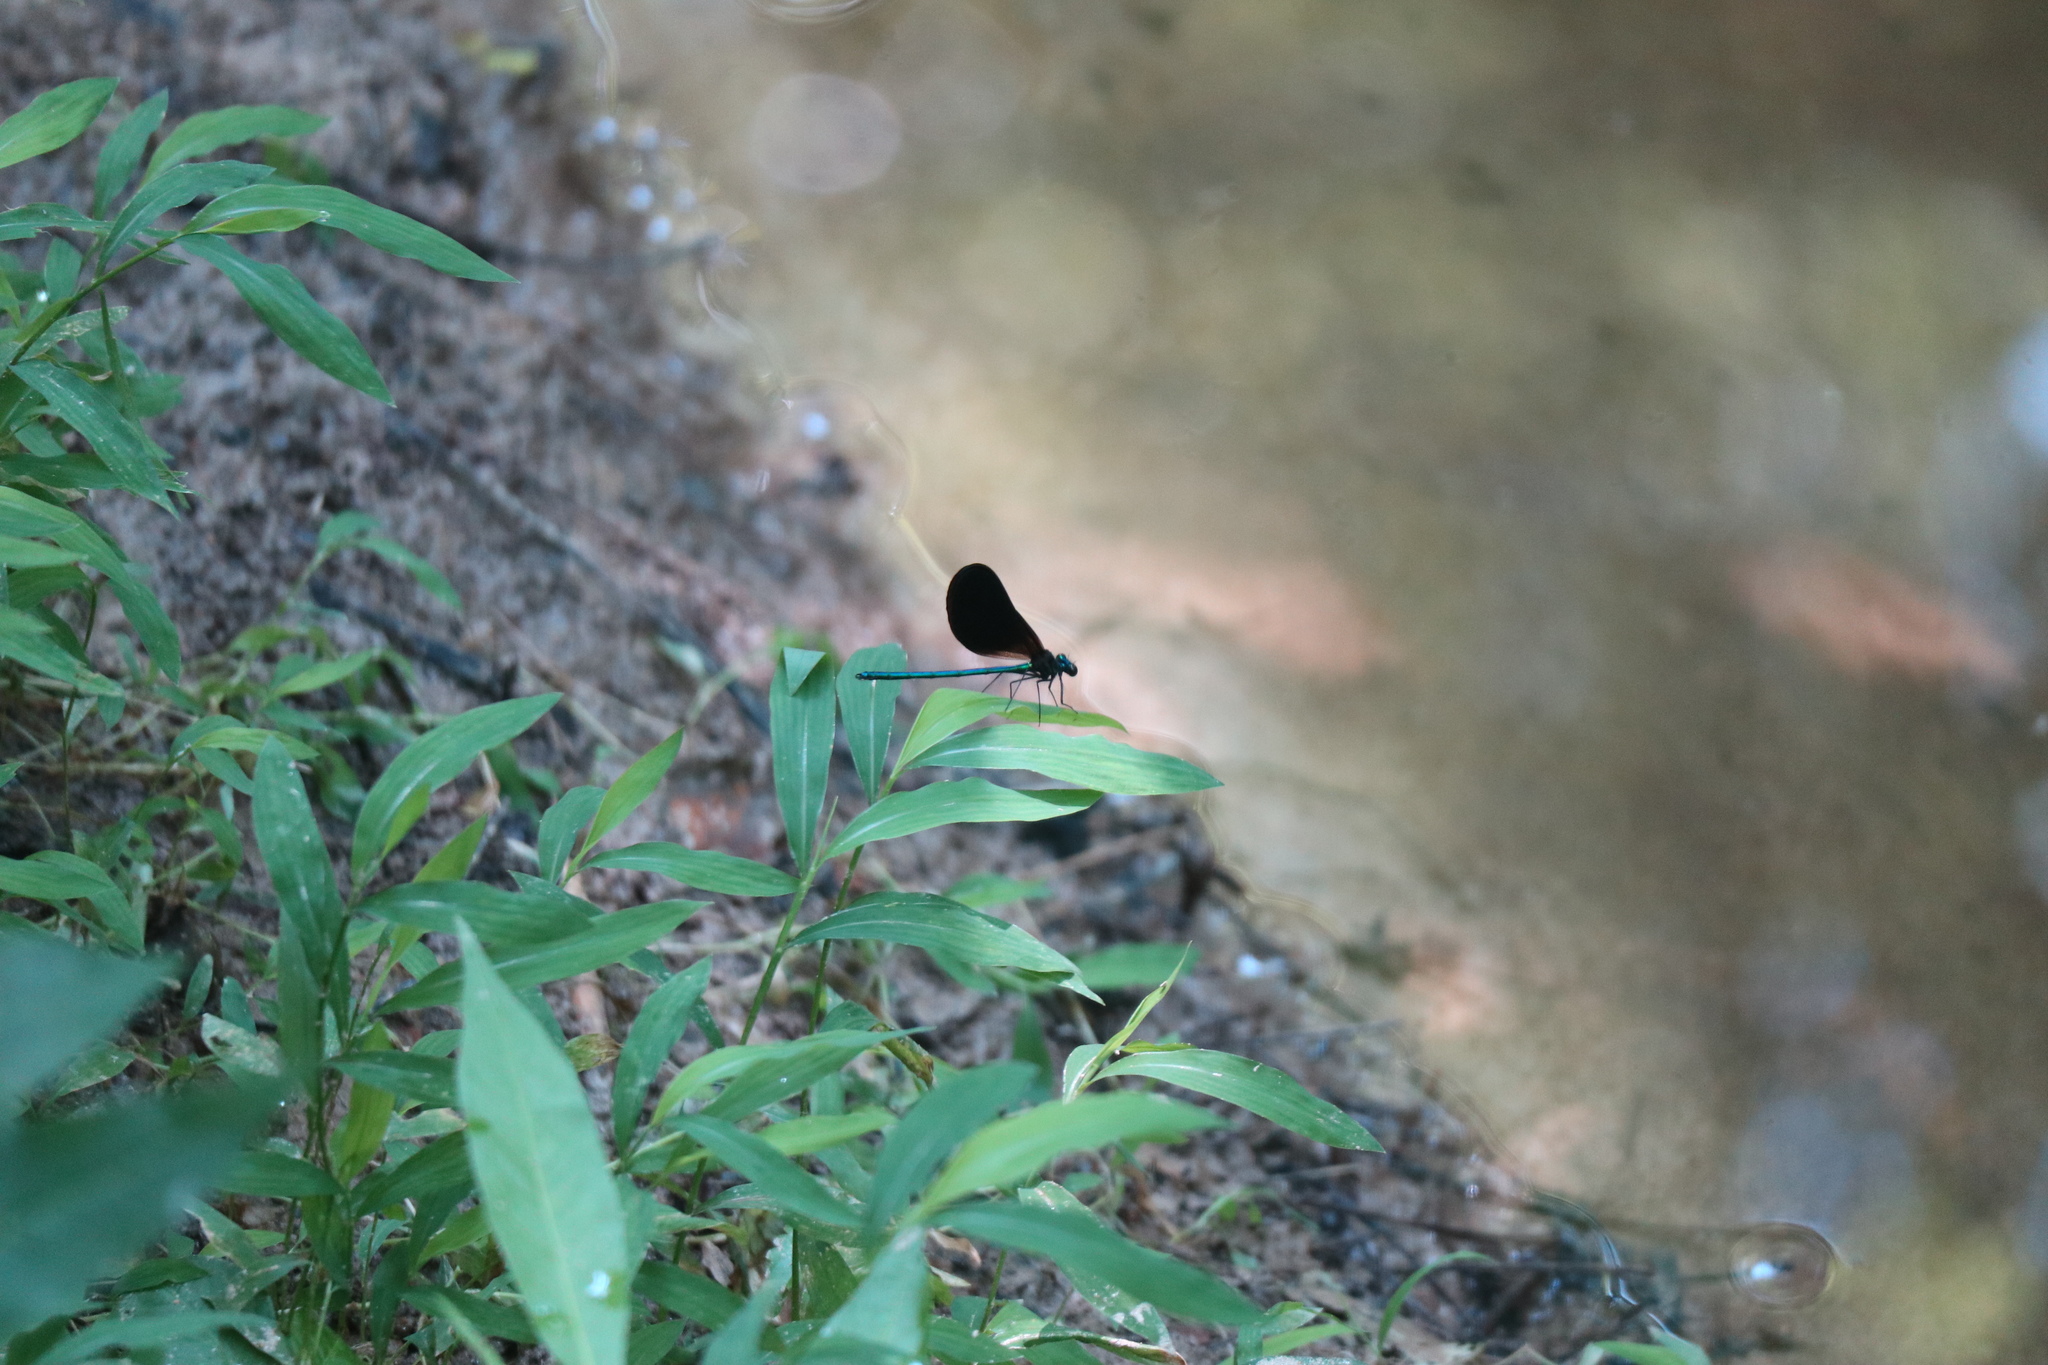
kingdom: Animalia
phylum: Arthropoda
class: Insecta
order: Odonata
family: Calopterygidae
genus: Calopteryx
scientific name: Calopteryx maculata
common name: Ebony jewelwing
